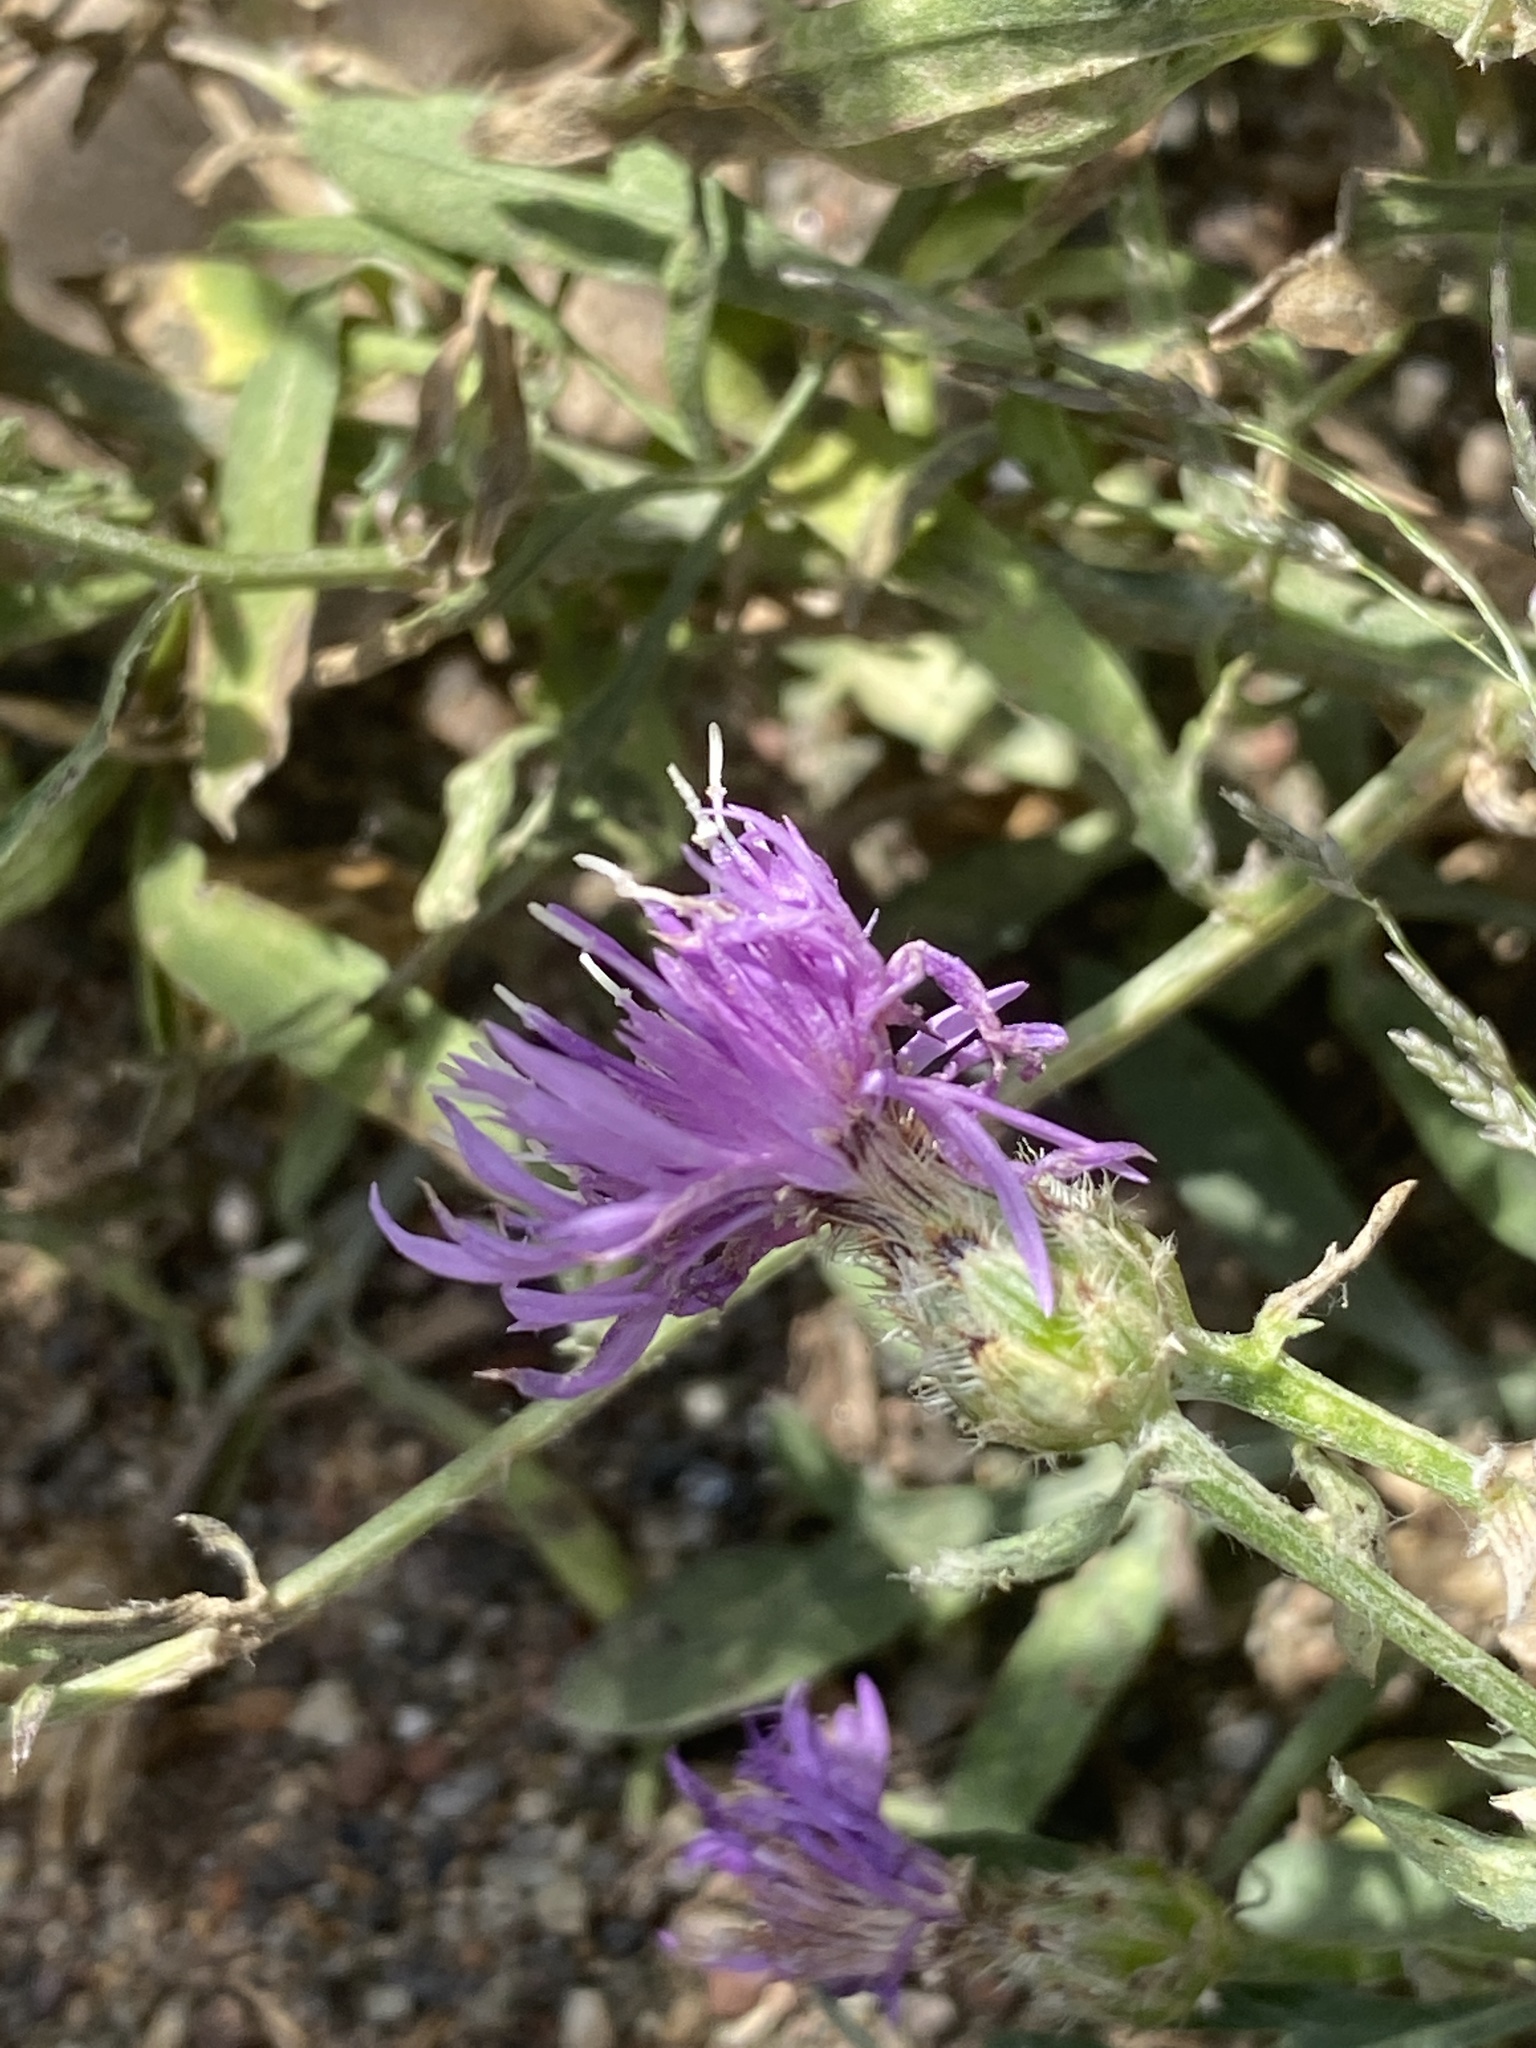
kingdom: Plantae
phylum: Tracheophyta
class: Magnoliopsida
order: Asterales
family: Asteraceae
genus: Centaurea
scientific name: Centaurea stoebe
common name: Spotted knapweed
